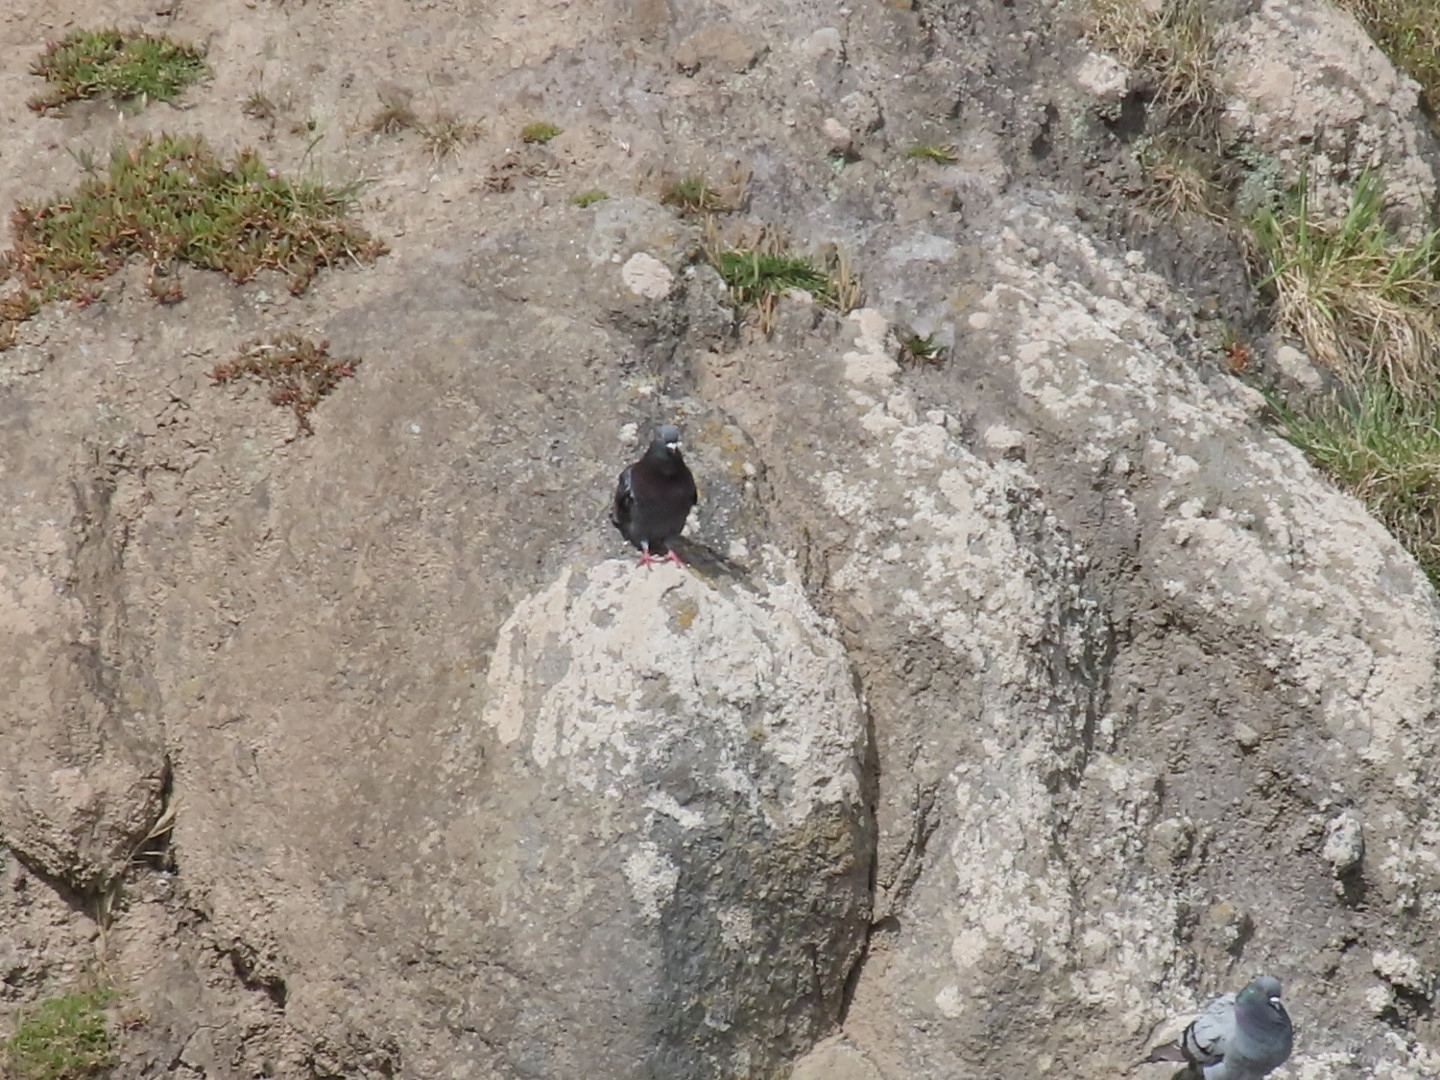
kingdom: Animalia
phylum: Chordata
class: Aves
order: Columbiformes
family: Columbidae
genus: Columba
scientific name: Columba livia
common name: Rock pigeon
